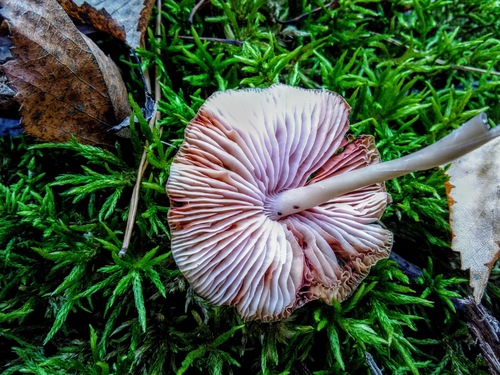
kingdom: Fungi
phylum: Basidiomycota
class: Agaricomycetes
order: Agaricales
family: Mycenaceae
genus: Mycena
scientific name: Mycena
